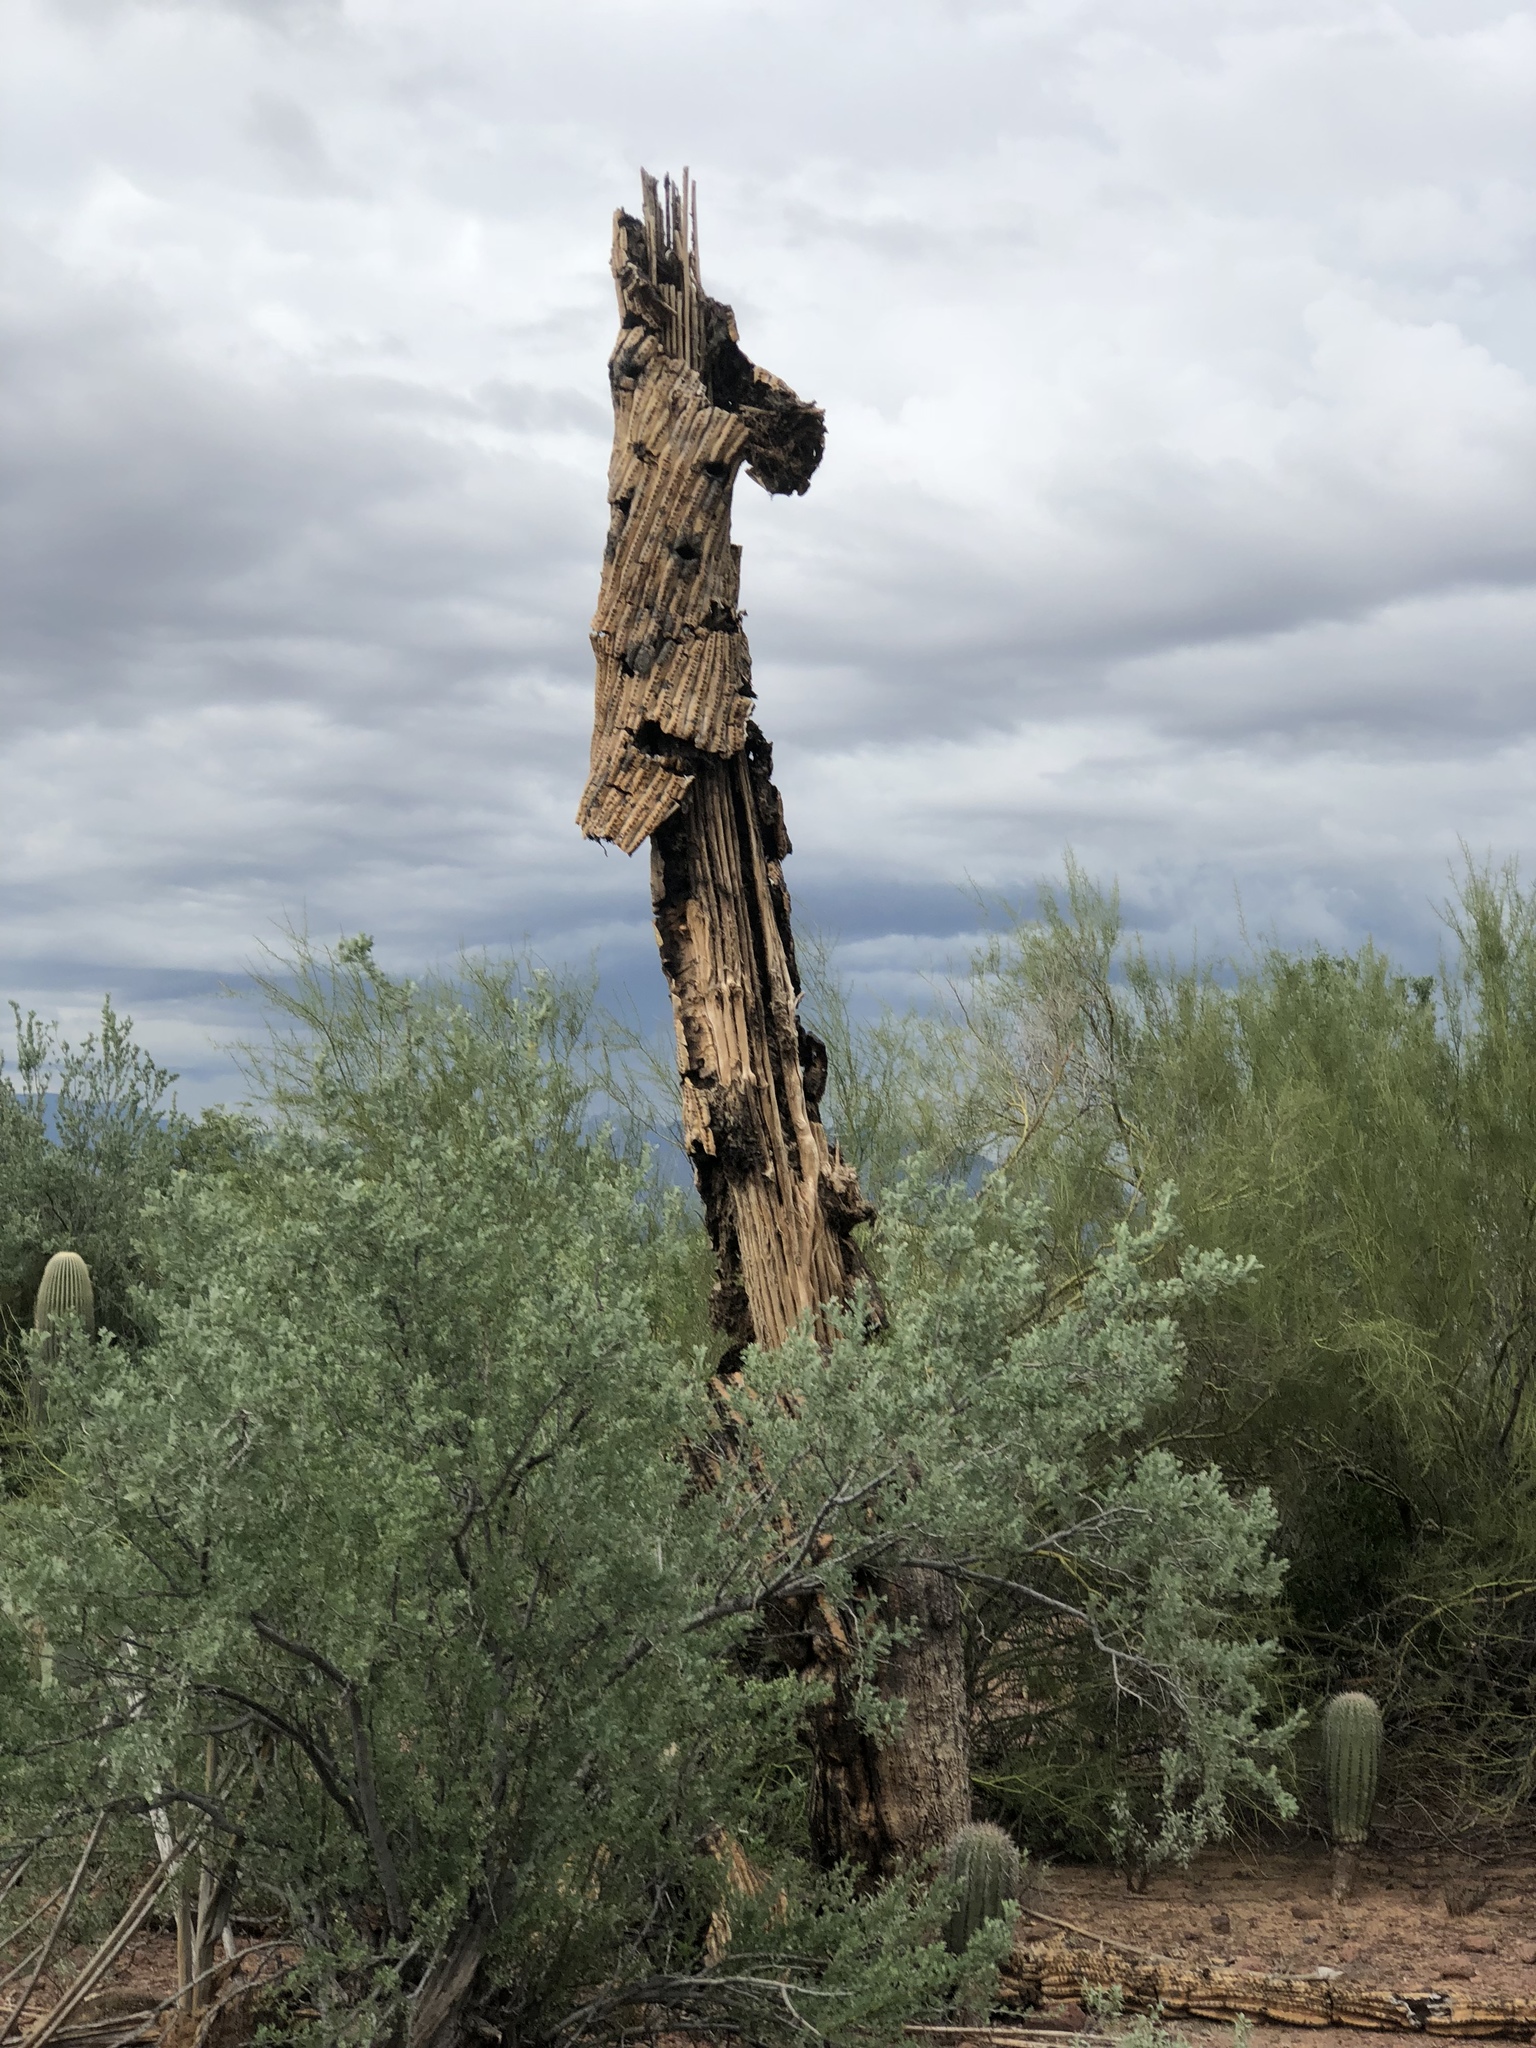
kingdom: Plantae
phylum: Tracheophyta
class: Magnoliopsida
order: Caryophyllales
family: Cactaceae
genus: Carnegiea
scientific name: Carnegiea gigantea
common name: Saguaro
